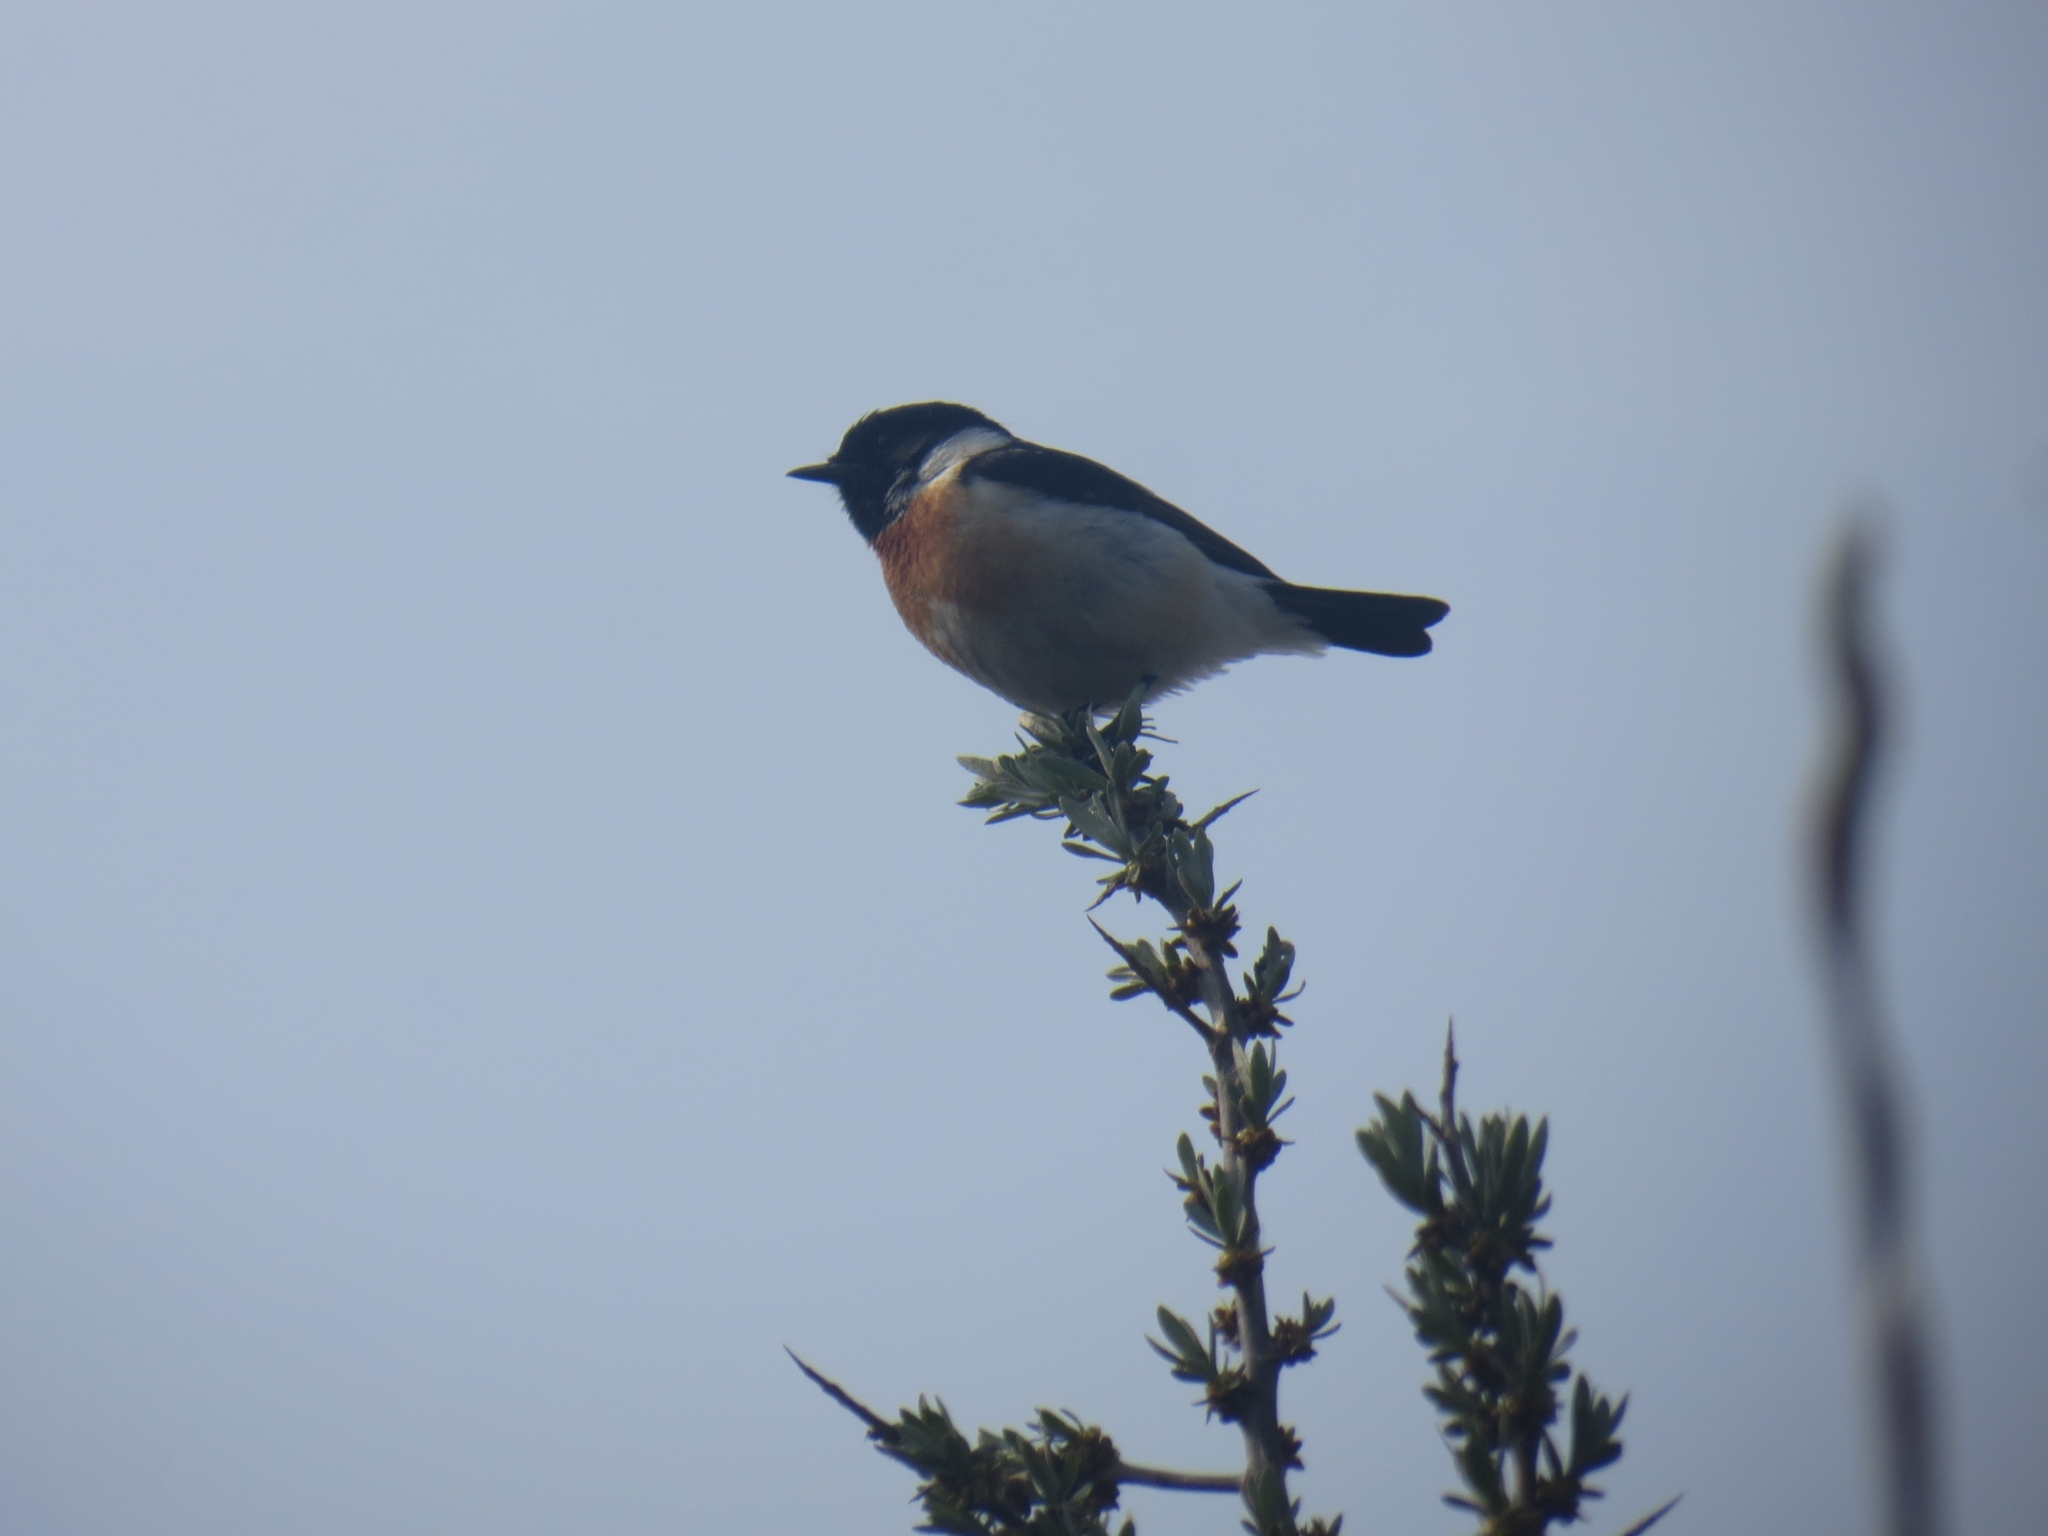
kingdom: Animalia
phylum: Chordata
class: Aves
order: Passeriformes
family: Muscicapidae
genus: Saxicola
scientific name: Saxicola maurus
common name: Siberian stonechat
